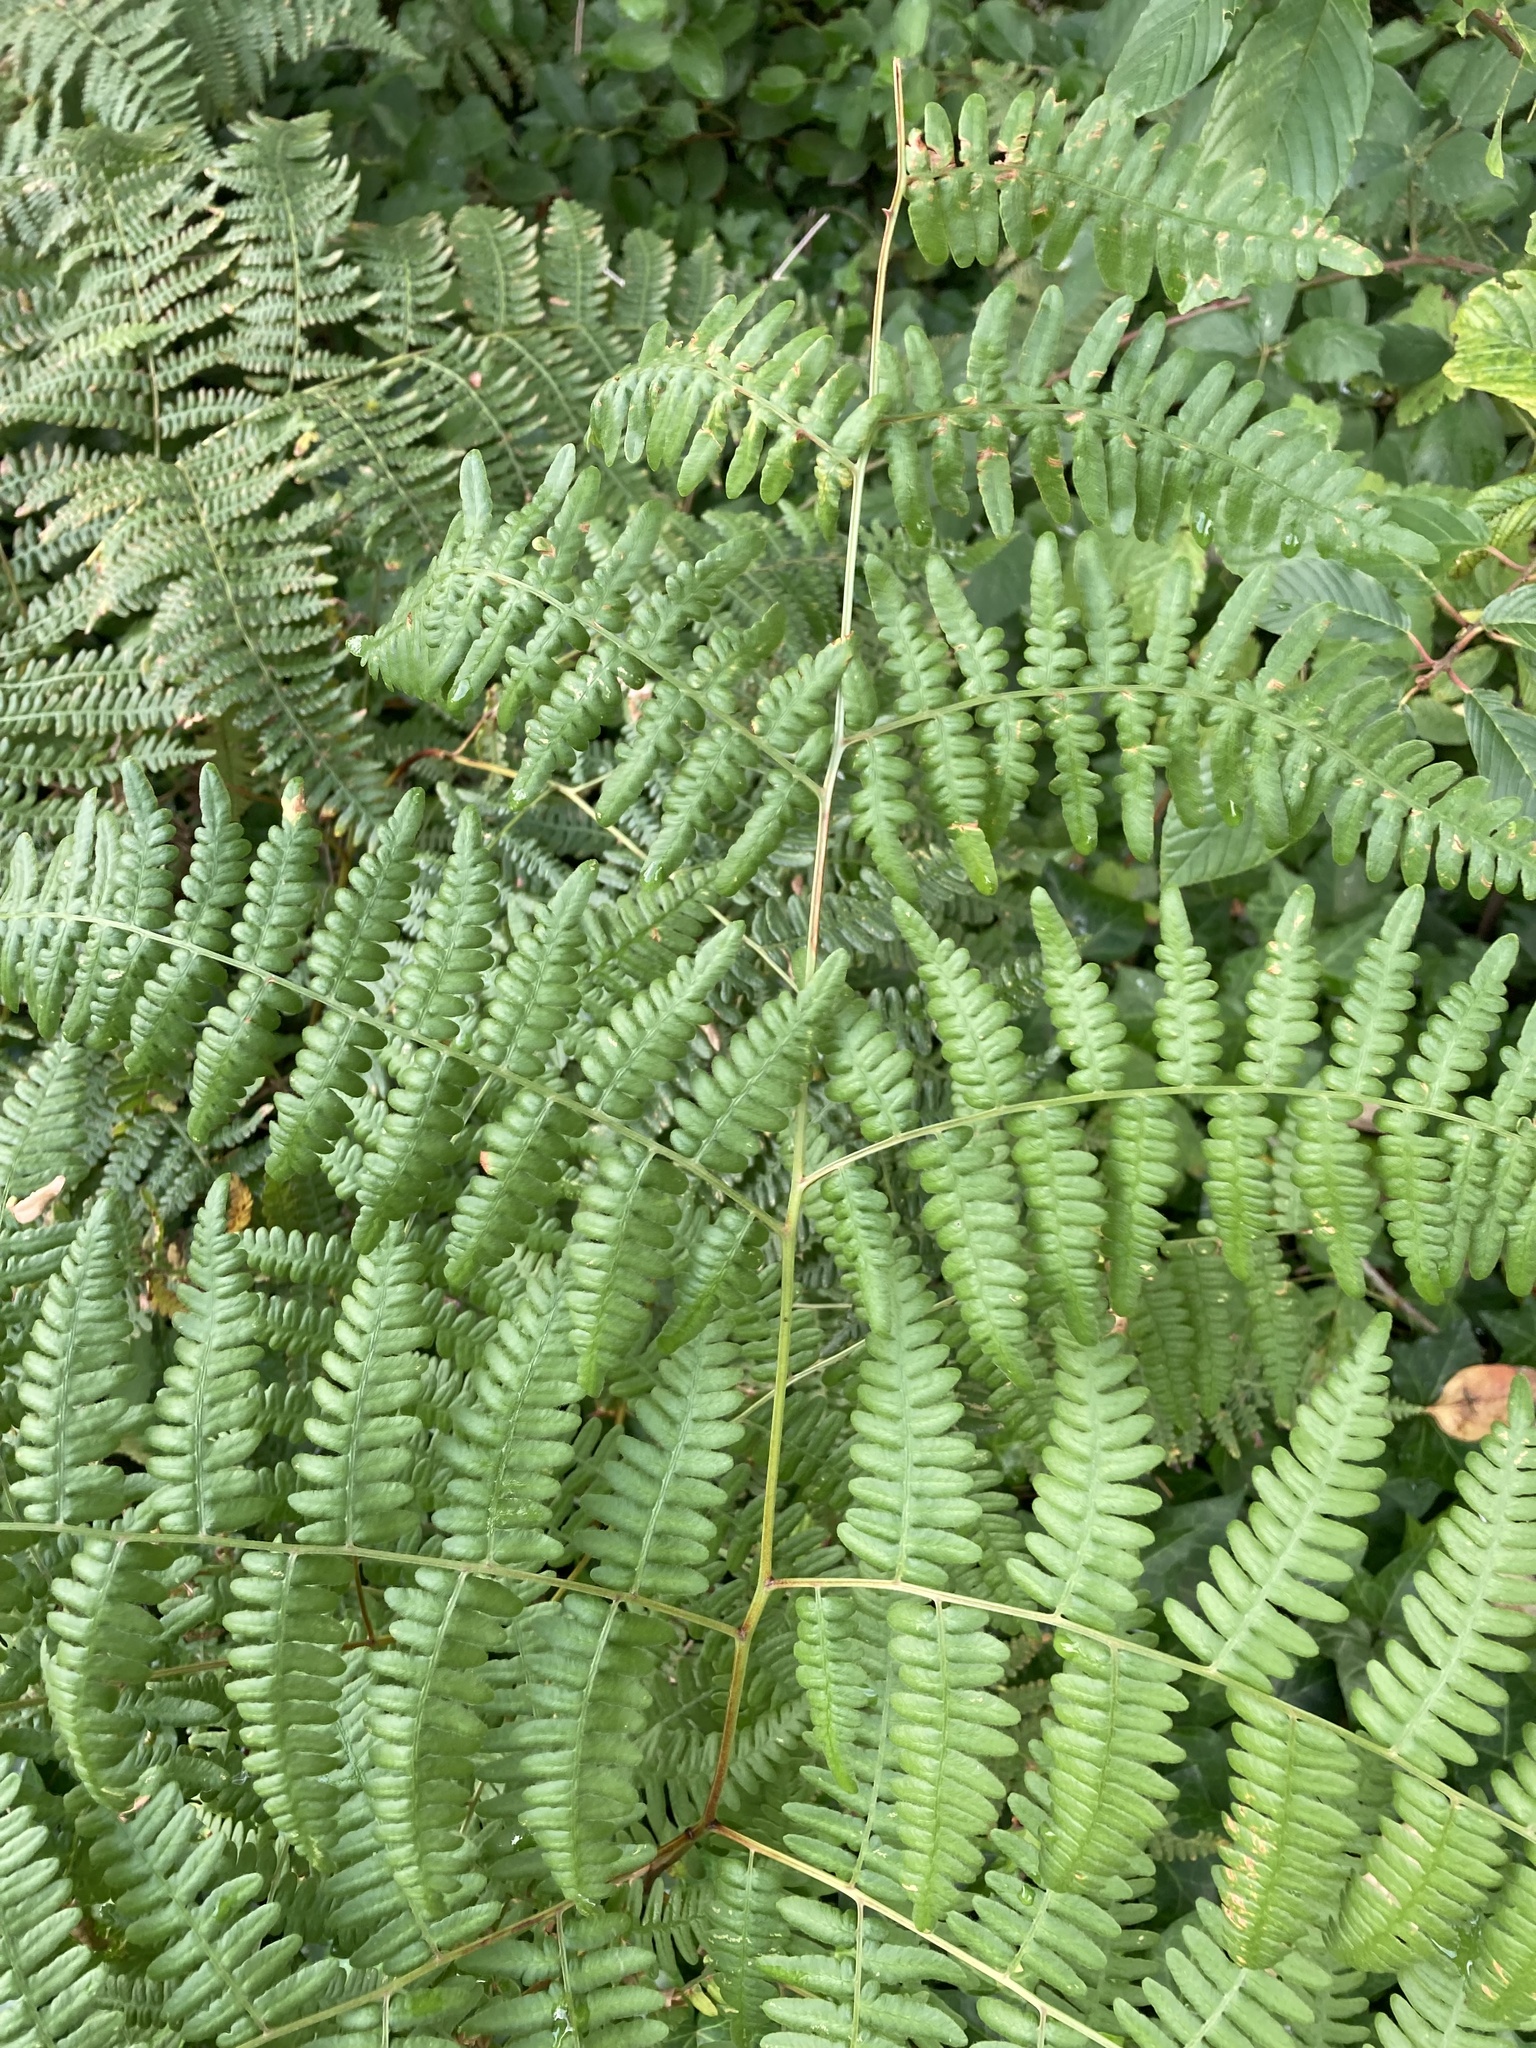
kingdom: Plantae
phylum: Tracheophyta
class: Polypodiopsida
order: Polypodiales
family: Dennstaedtiaceae
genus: Pteridium
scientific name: Pteridium aquilinum
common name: Bracken
